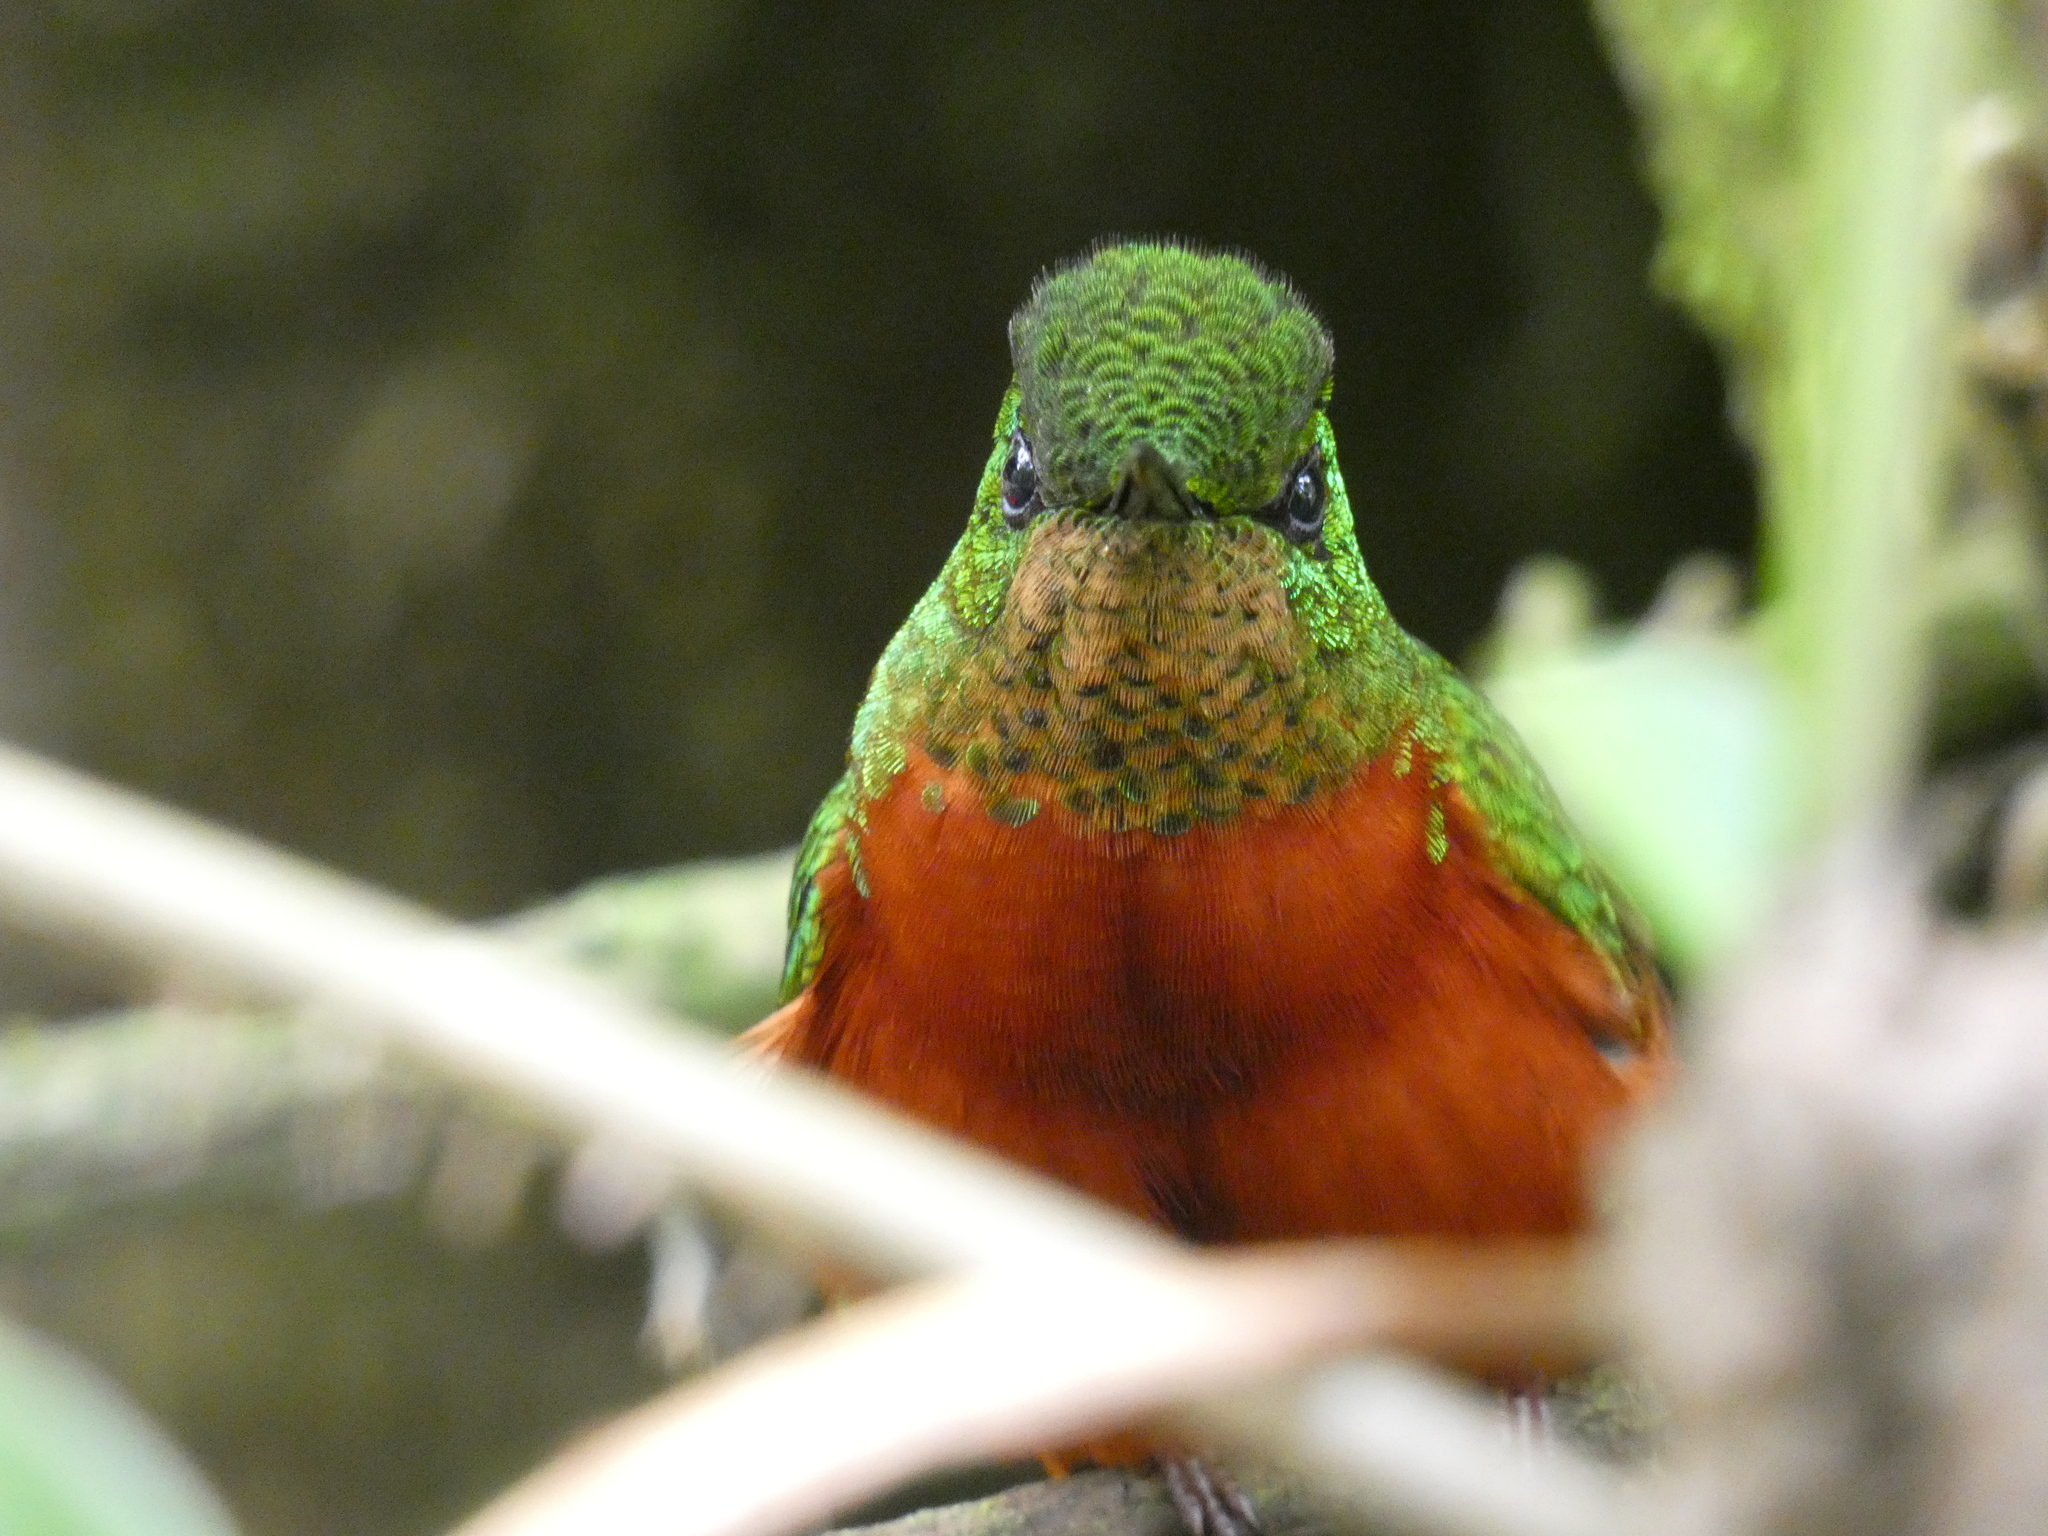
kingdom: Animalia
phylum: Chordata
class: Aves
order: Apodiformes
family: Trochilidae
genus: Boissonneaua
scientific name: Boissonneaua matthewsii
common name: Chestnut-breasted coronet
